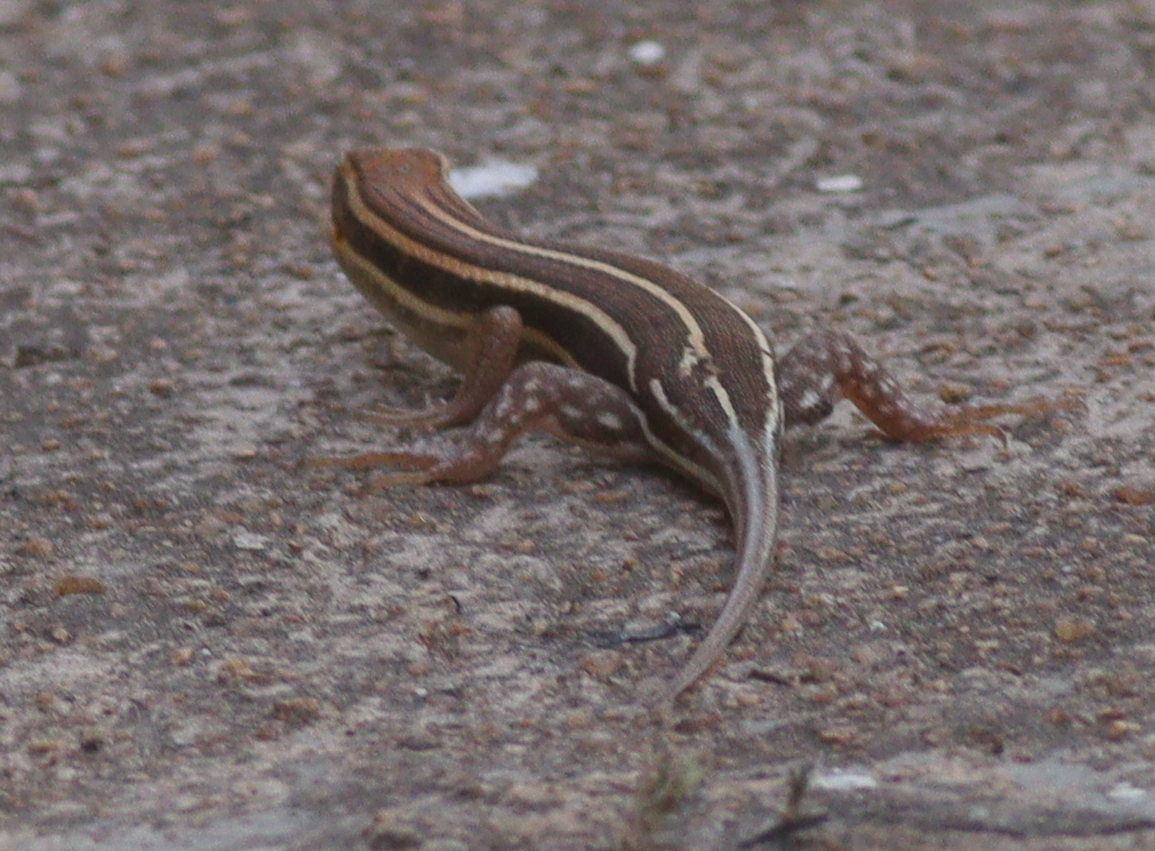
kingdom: Animalia
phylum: Chordata
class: Squamata
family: Scincidae
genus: Trachylepis
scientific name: Trachylepis quinquetaeniata
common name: African five-lined skink
